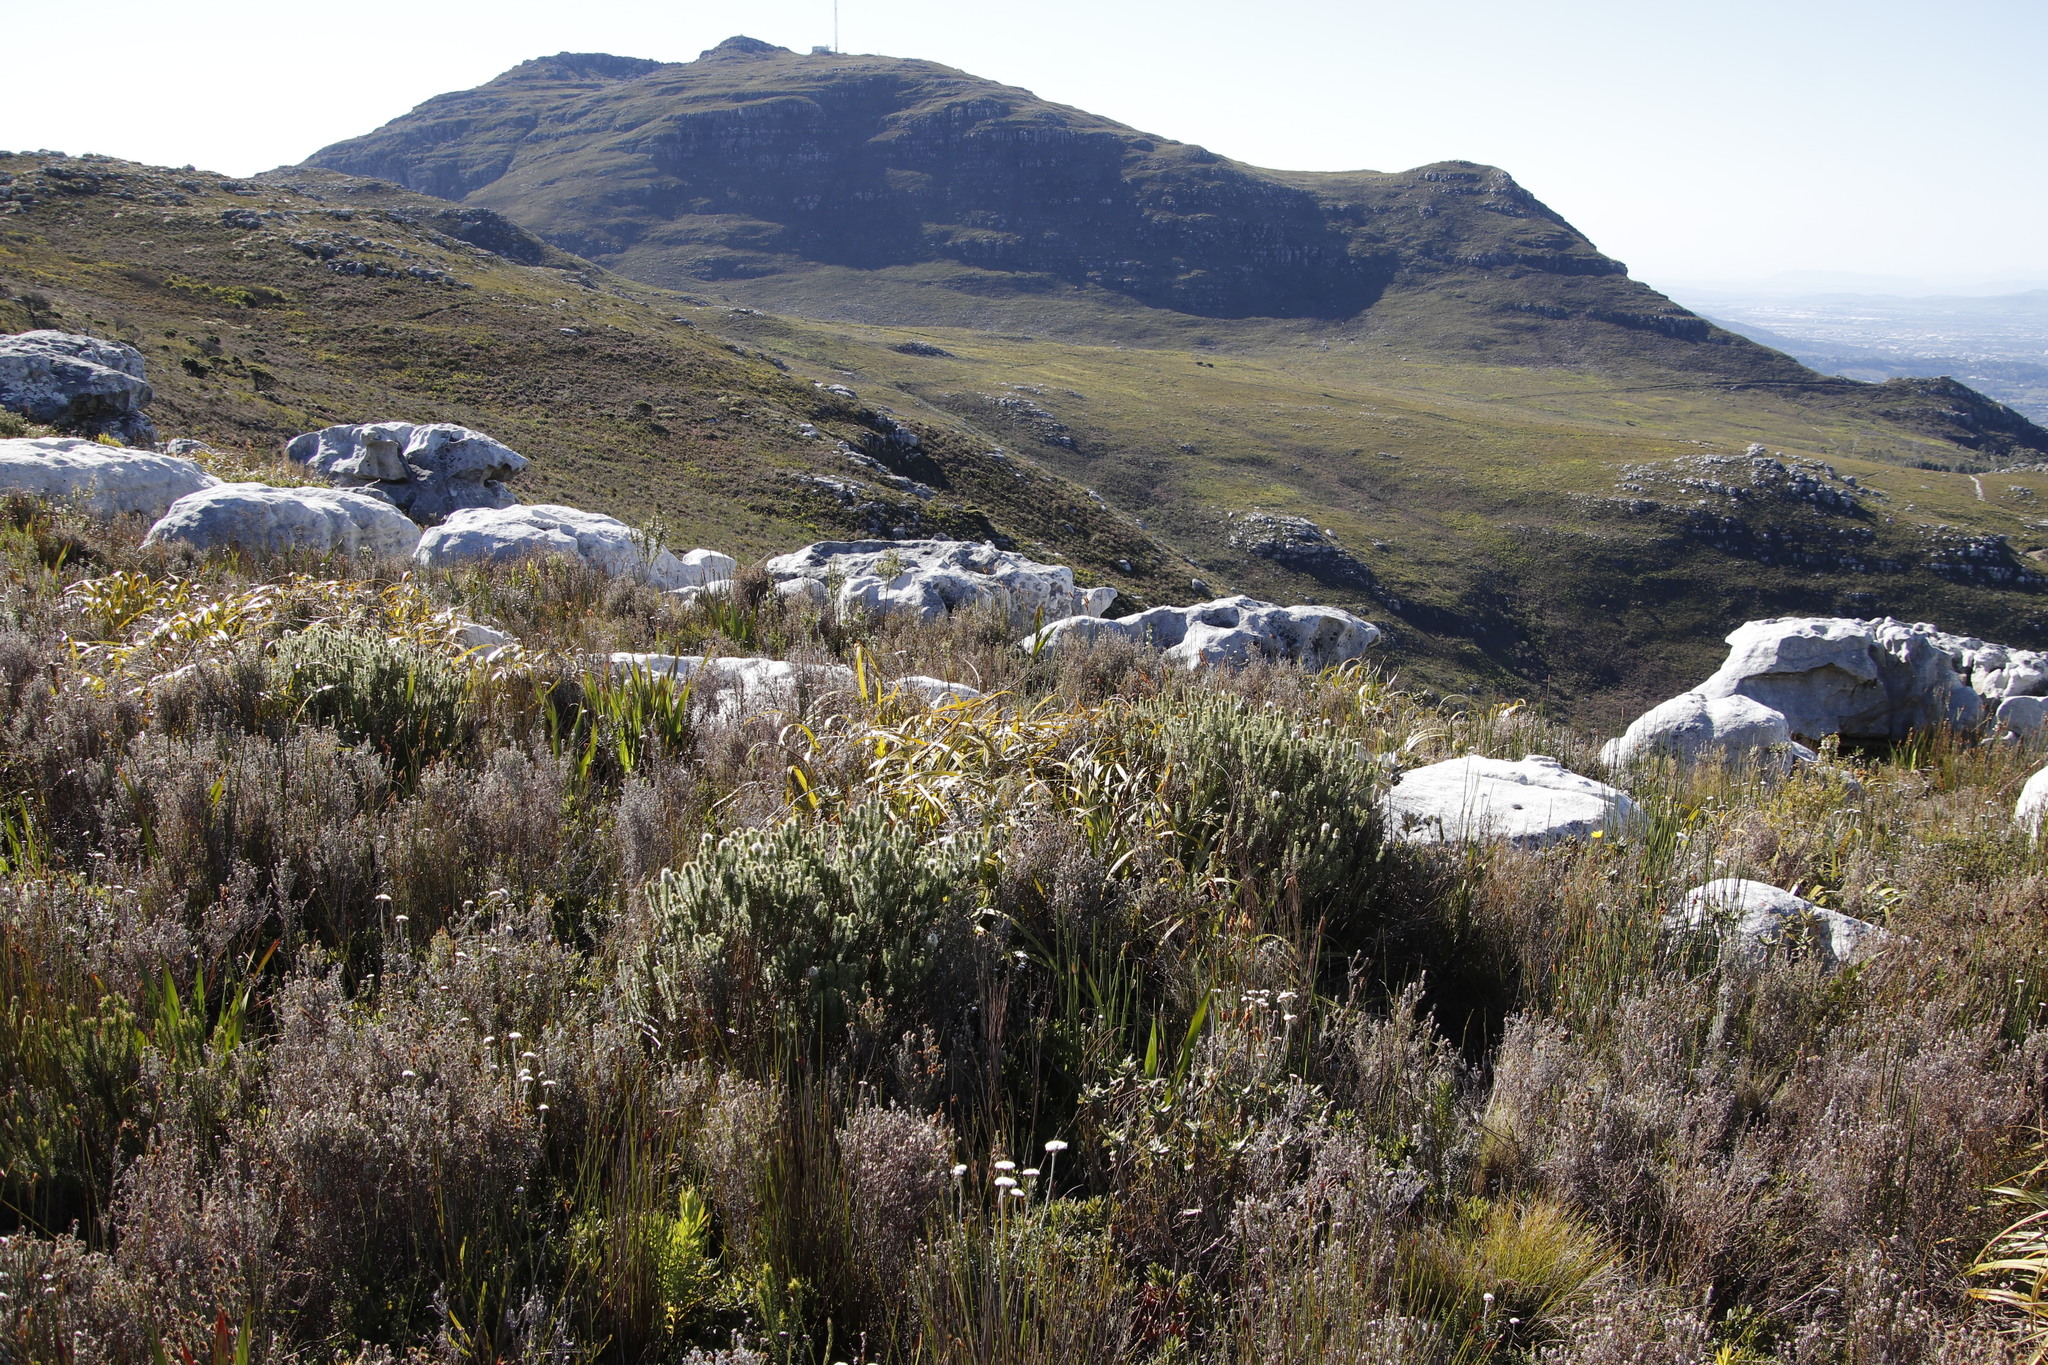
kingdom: Plantae
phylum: Tracheophyta
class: Magnoliopsida
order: Lamiales
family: Stilbaceae
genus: Stilbe
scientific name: Stilbe vestita
